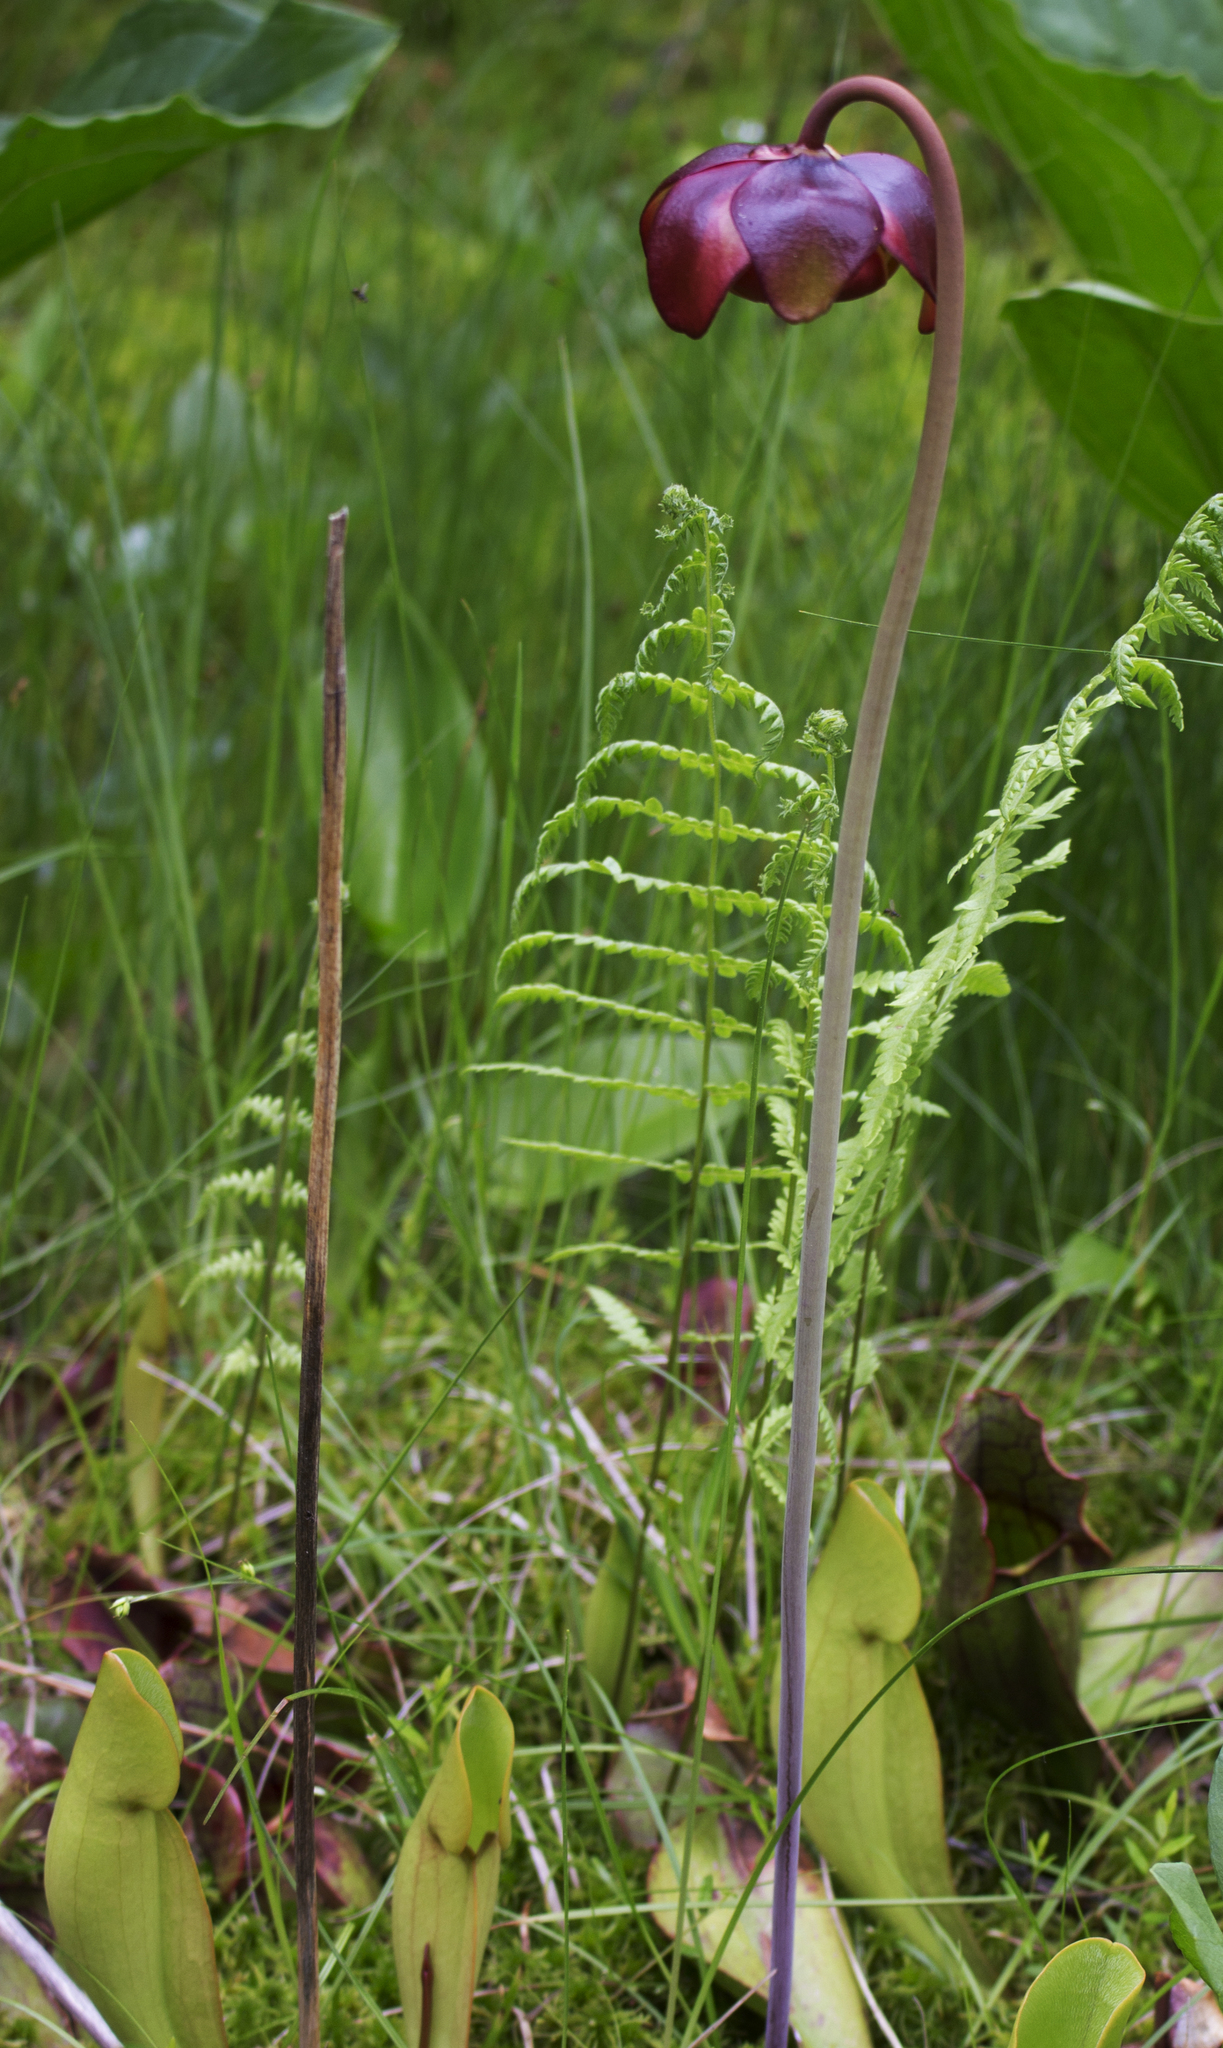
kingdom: Plantae
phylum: Tracheophyta
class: Magnoliopsida
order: Ericales
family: Sarraceniaceae
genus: Sarracenia
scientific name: Sarracenia purpurea
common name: Pitcherplant
